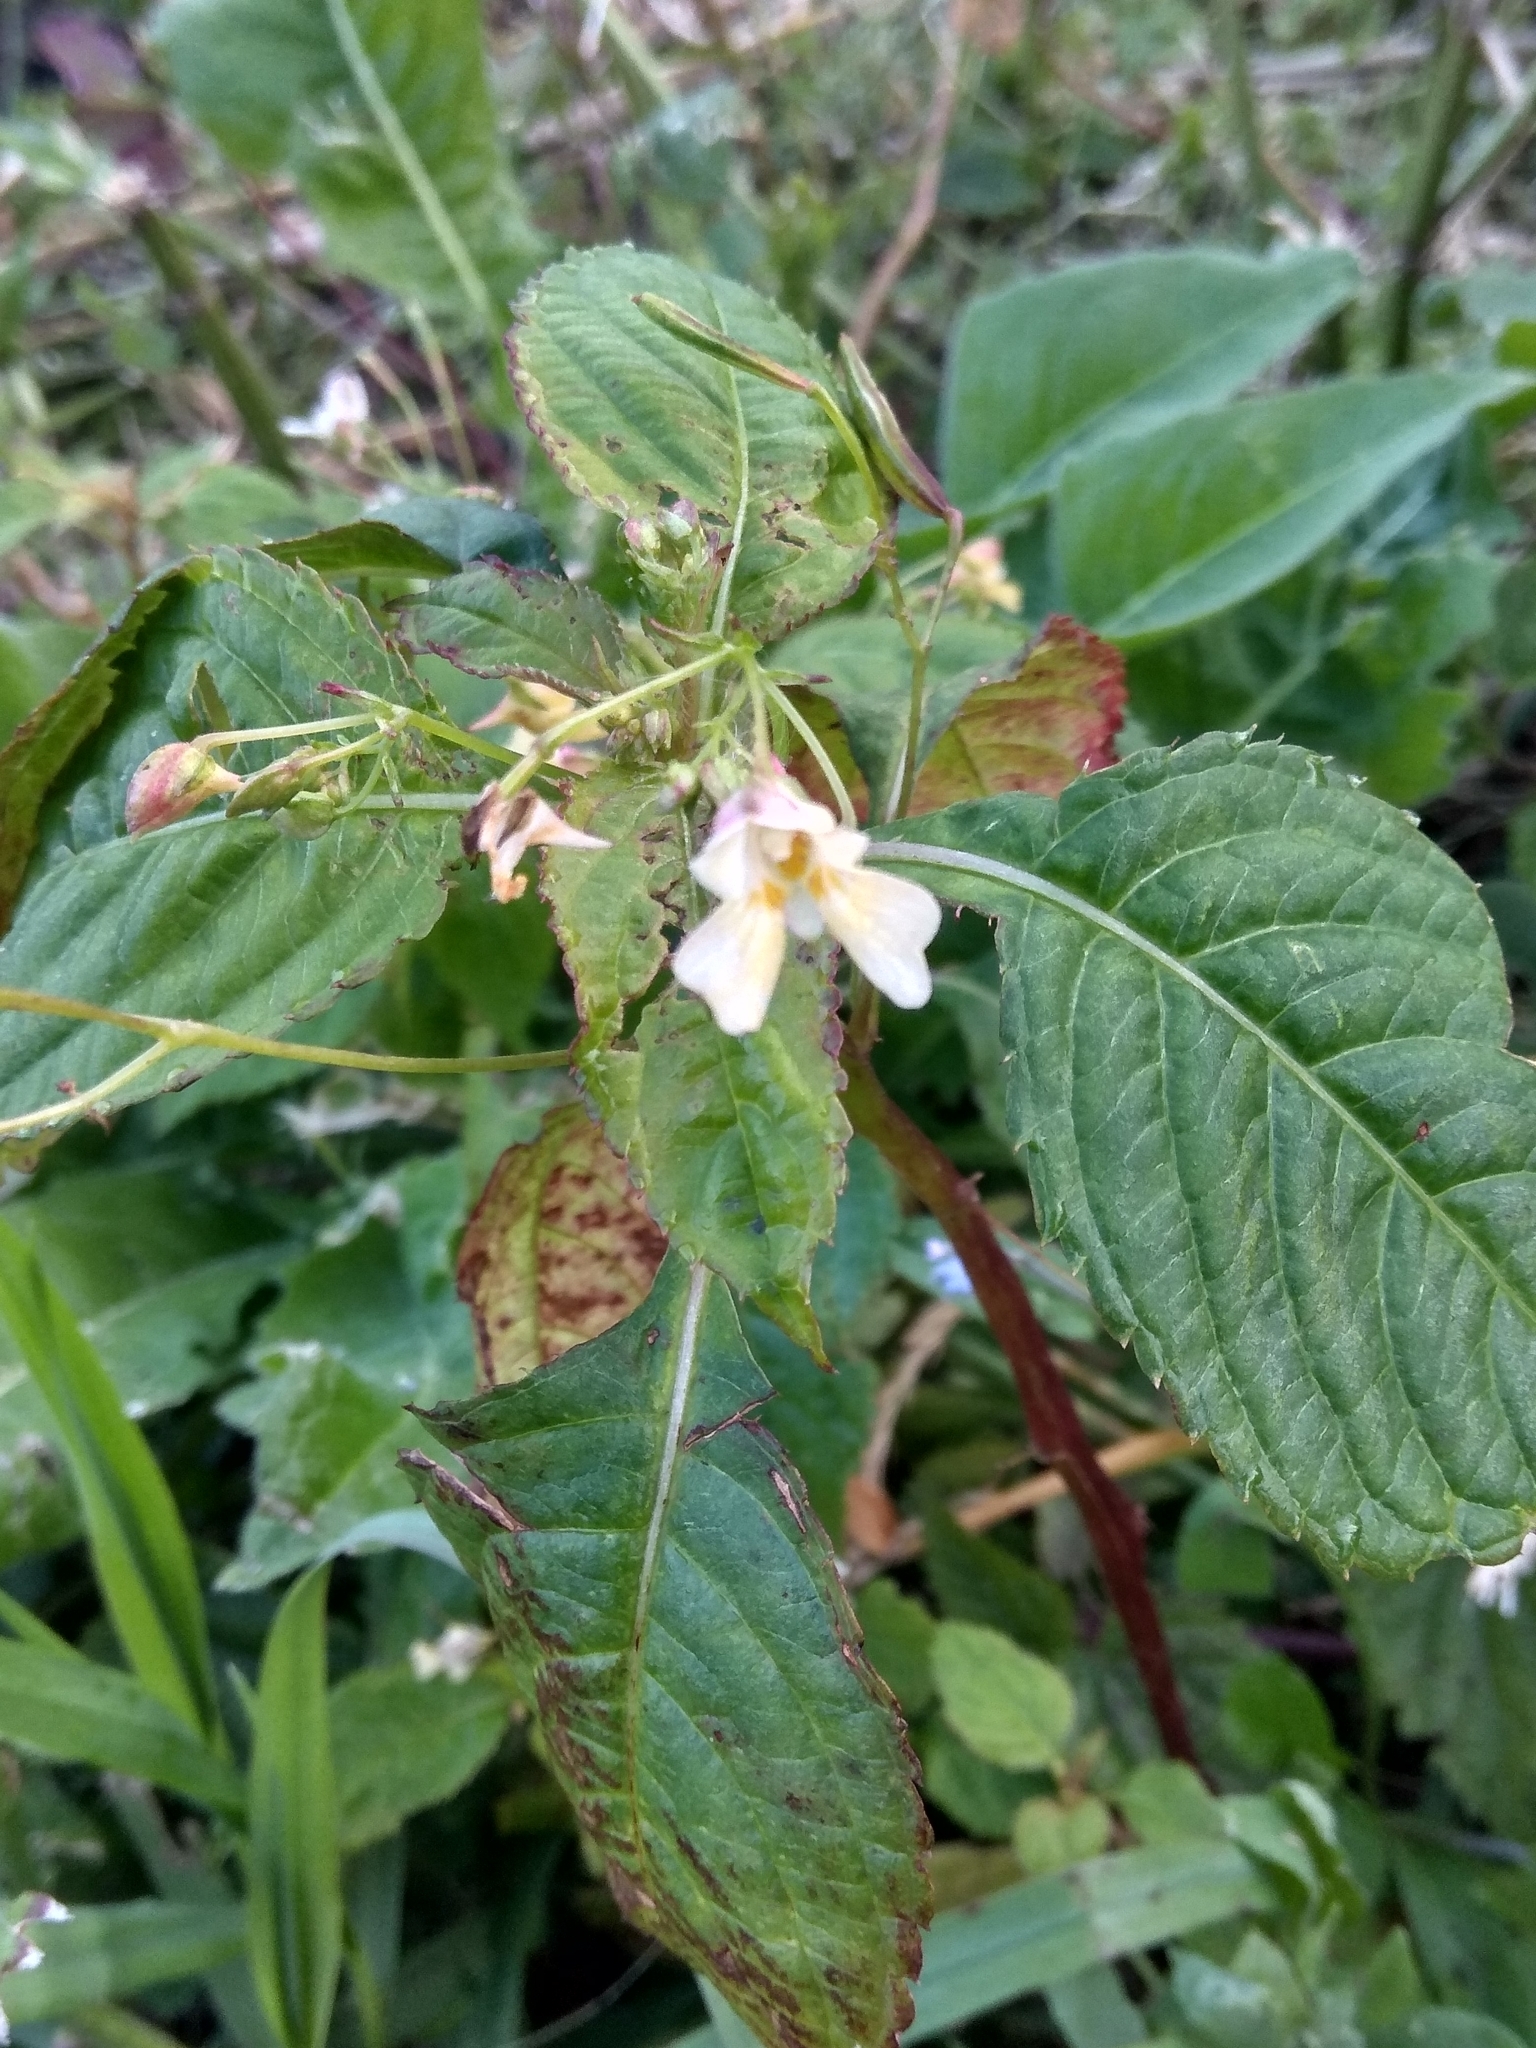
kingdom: Plantae
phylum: Tracheophyta
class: Magnoliopsida
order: Ericales
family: Balsaminaceae
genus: Impatiens
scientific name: Impatiens parviflora
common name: Small balsam
